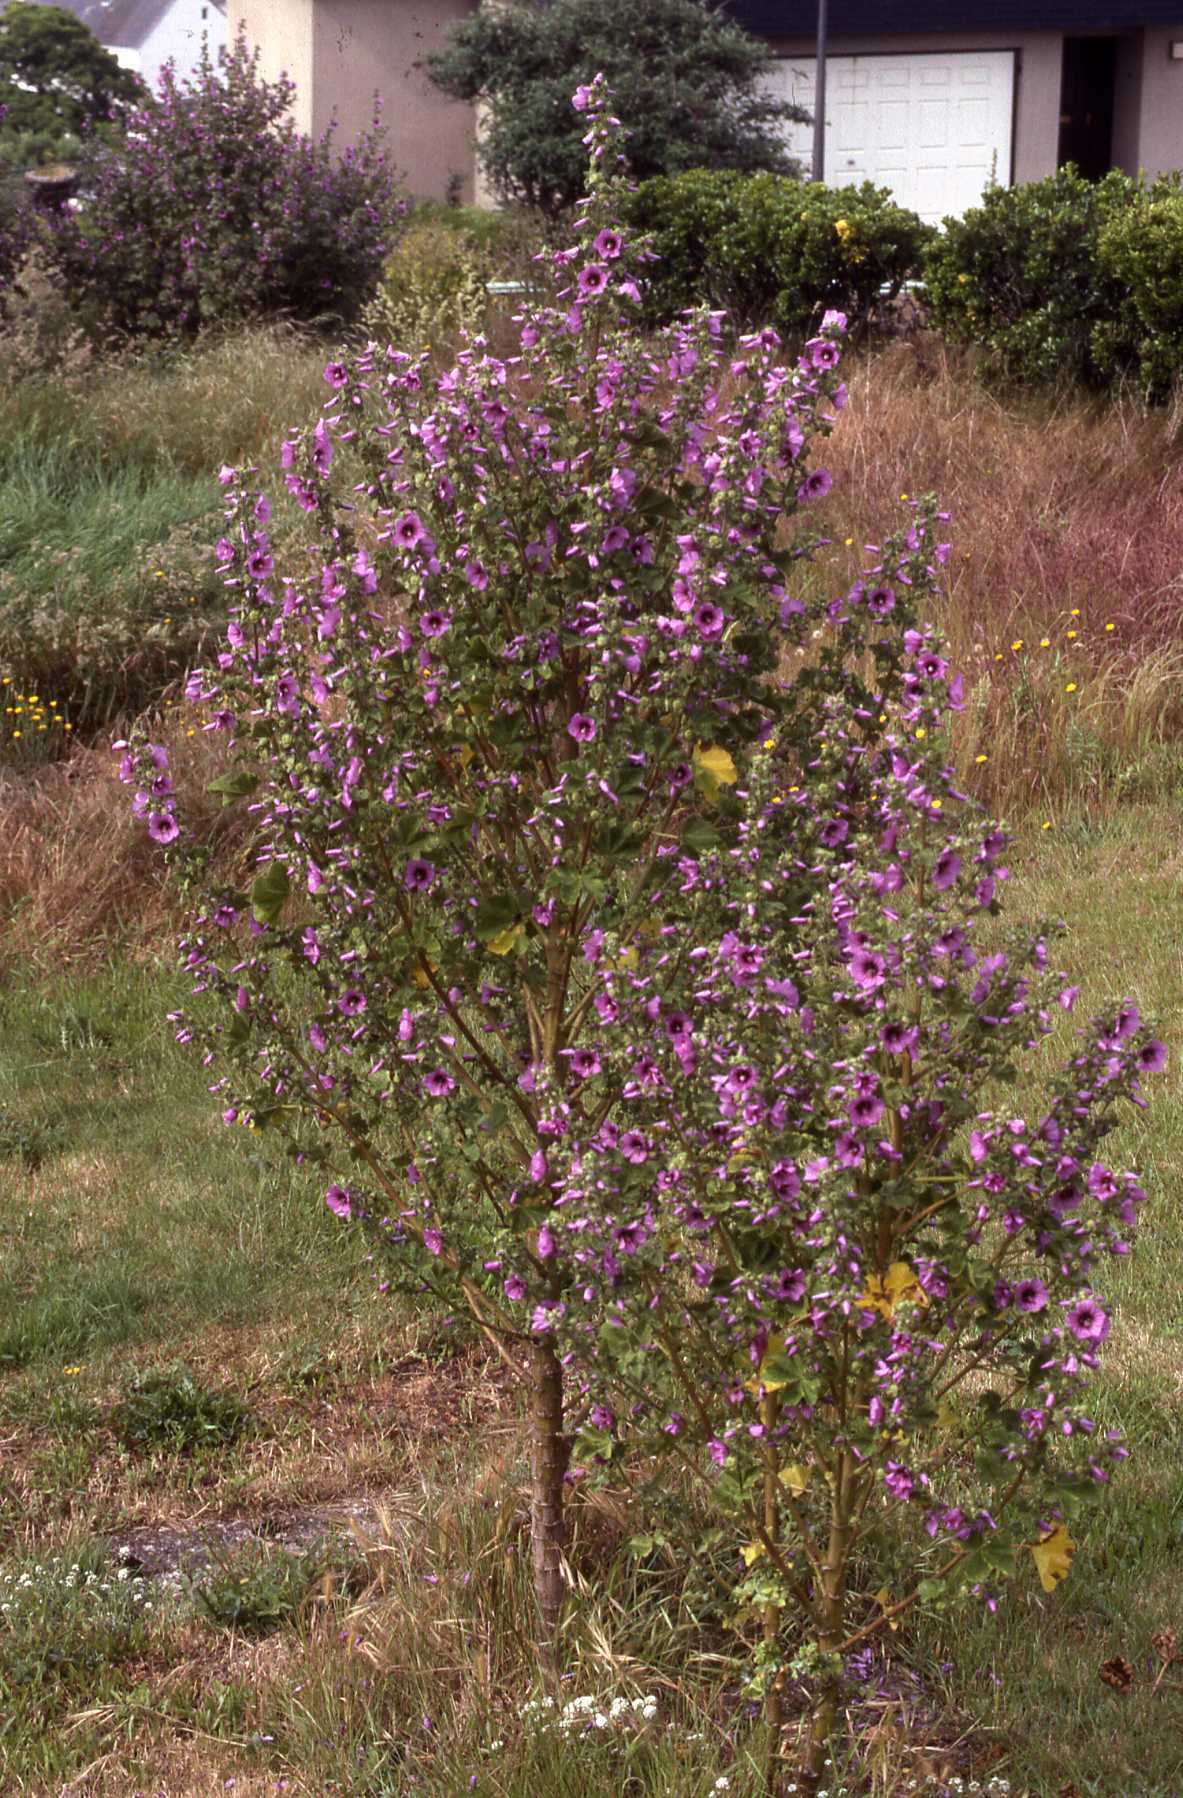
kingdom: Plantae
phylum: Tracheophyta
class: Magnoliopsida
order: Malvales
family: Malvaceae
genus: Malva
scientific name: Malva arborea
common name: Tree mallow
